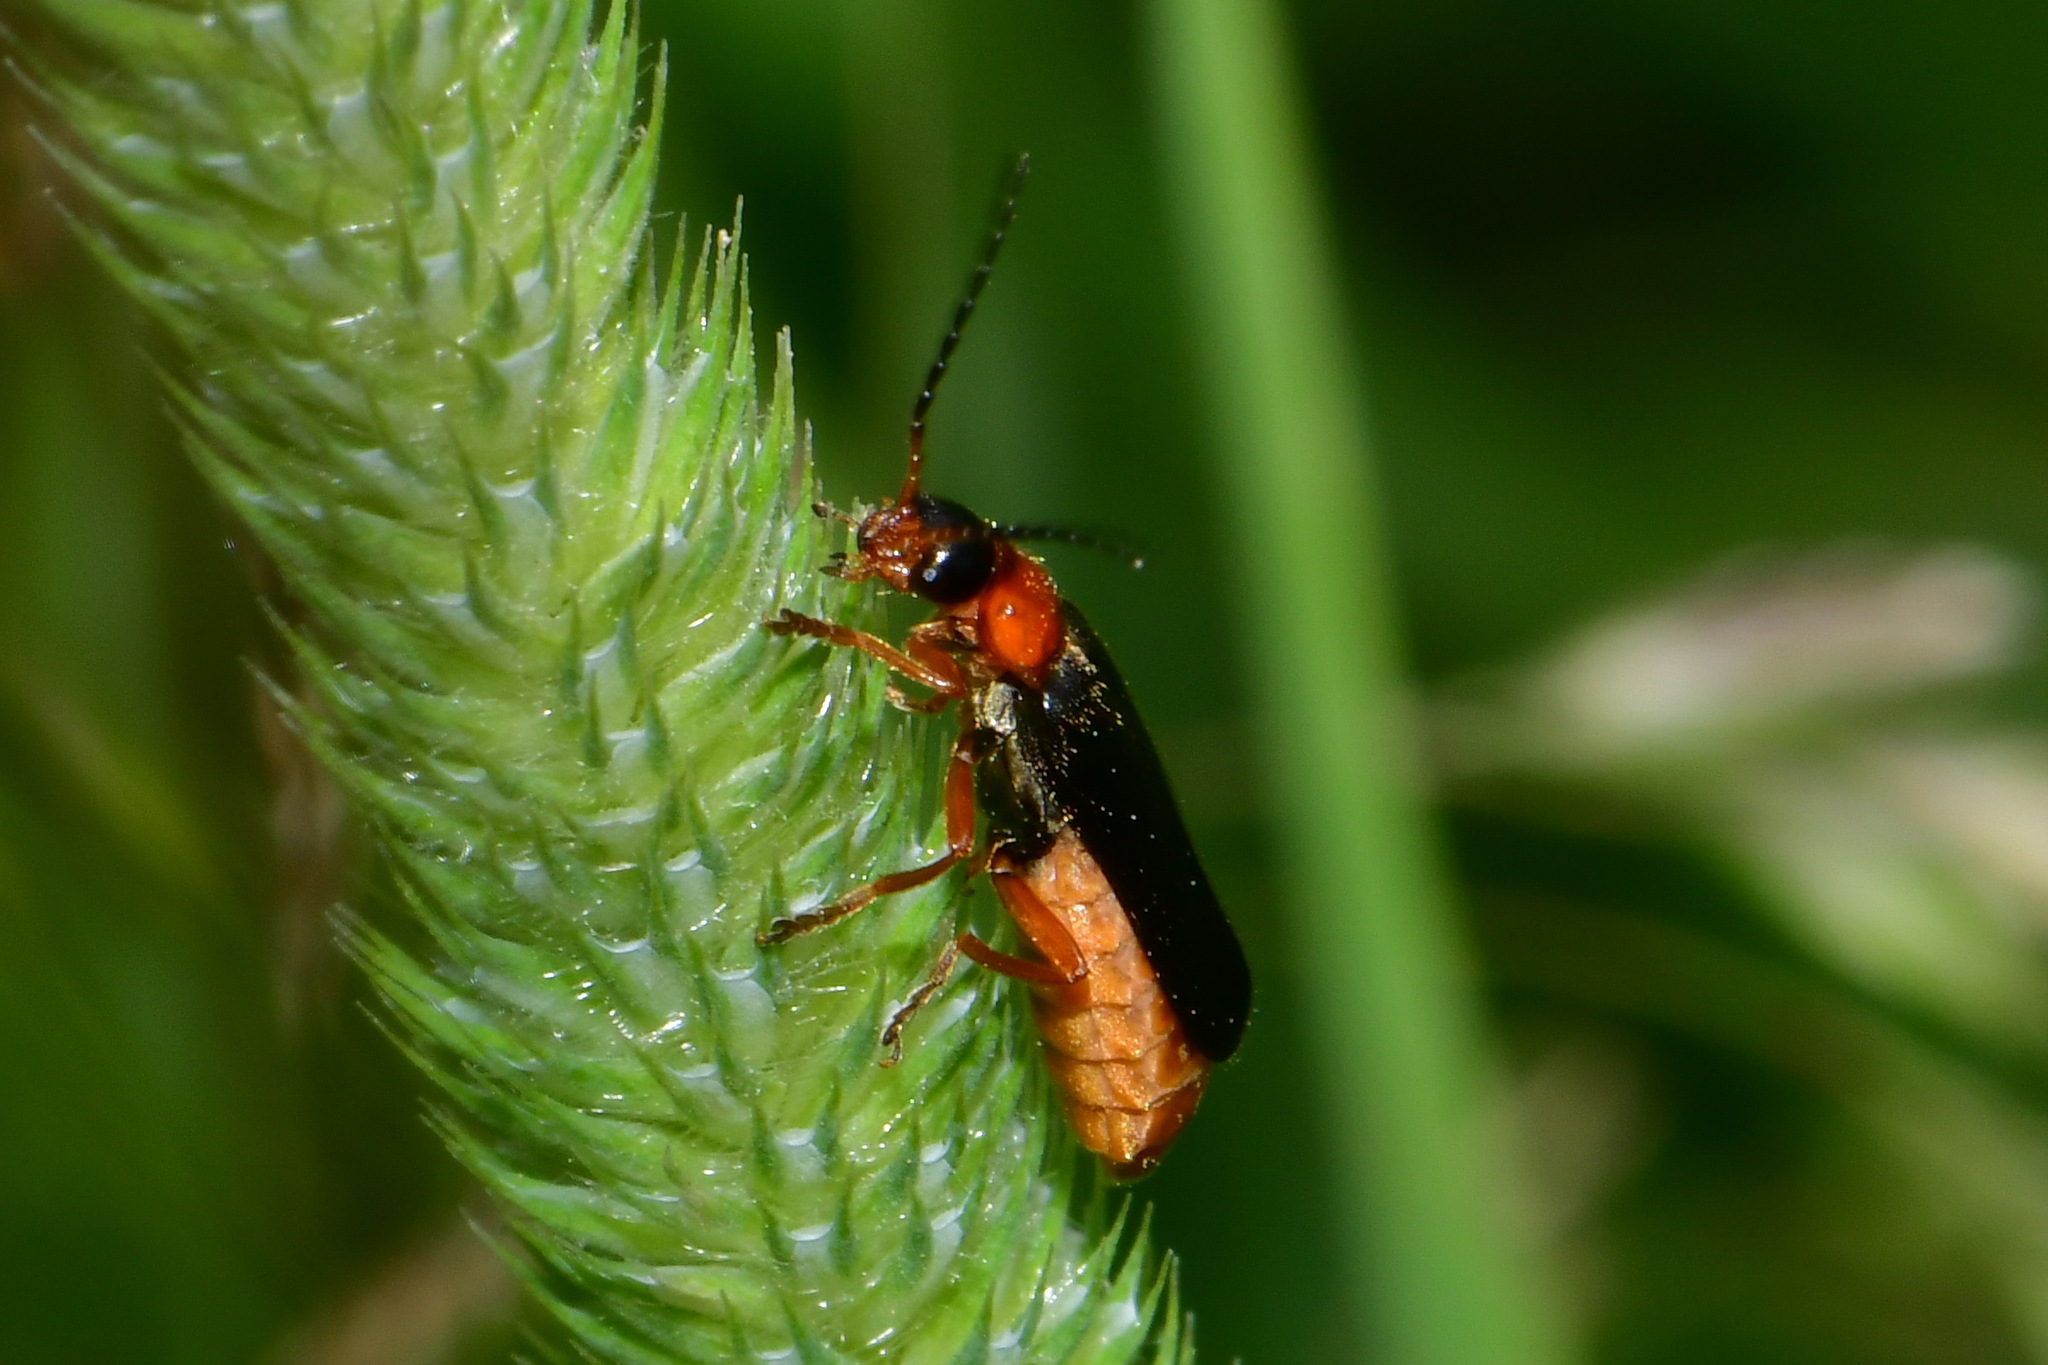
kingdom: Animalia
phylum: Arthropoda
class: Insecta
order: Coleoptera
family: Cantharidae
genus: Cantharis
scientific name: Cantharis flavilabris
